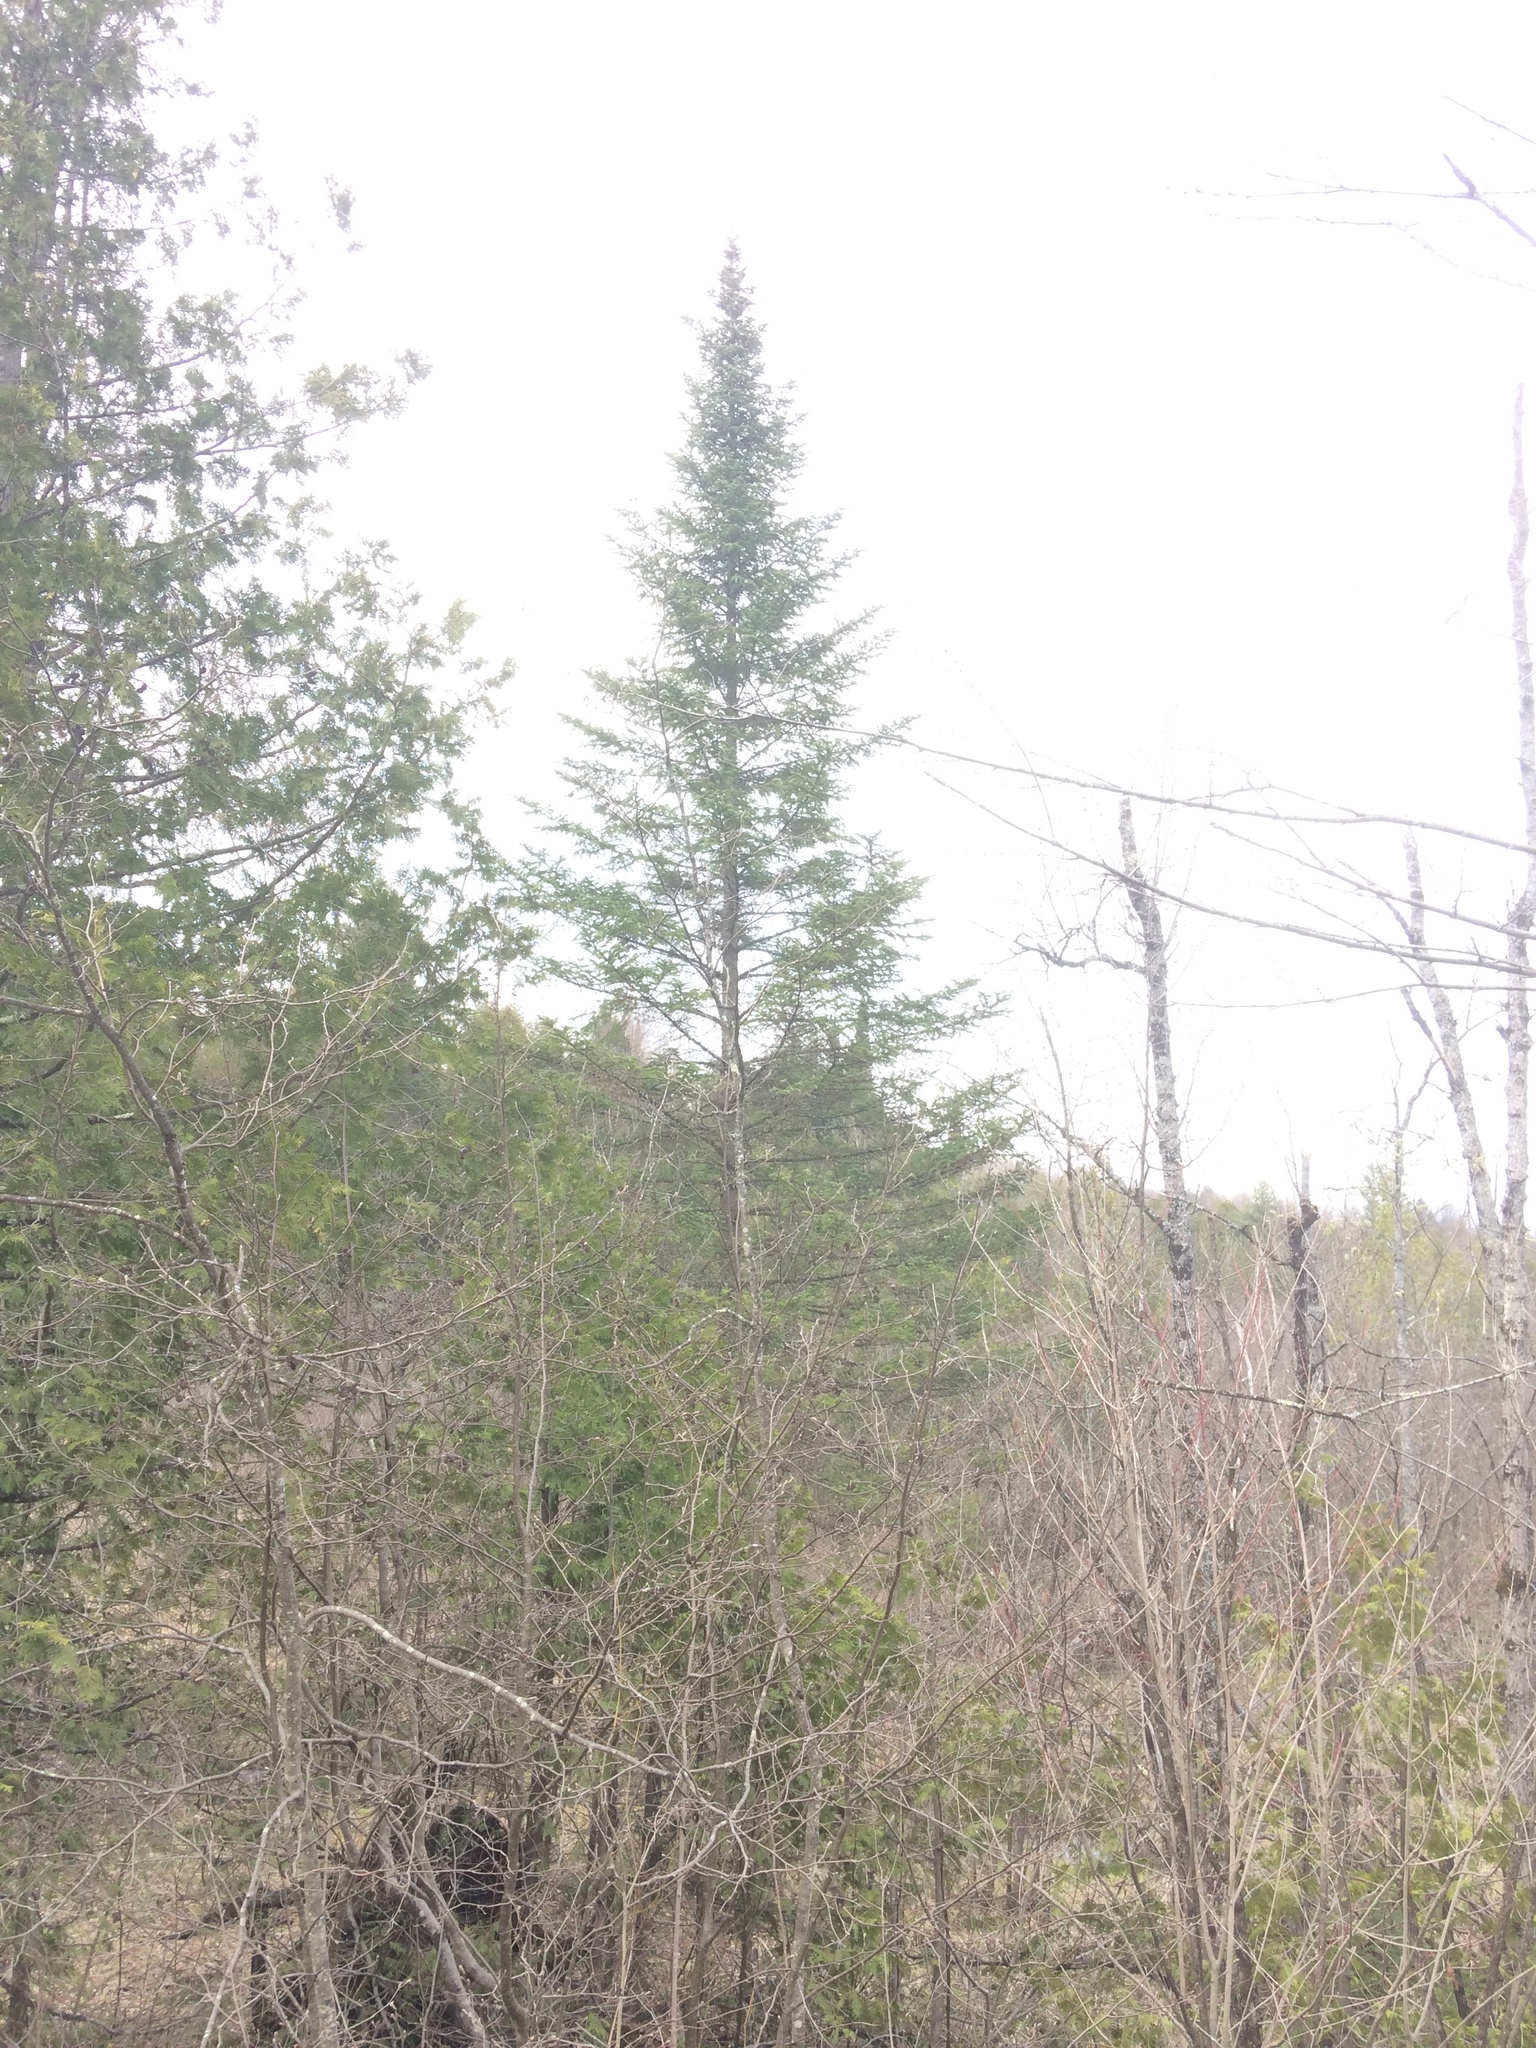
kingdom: Plantae
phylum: Tracheophyta
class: Pinopsida
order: Pinales
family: Pinaceae
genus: Abies
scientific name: Abies balsamea
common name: Balsam fir
